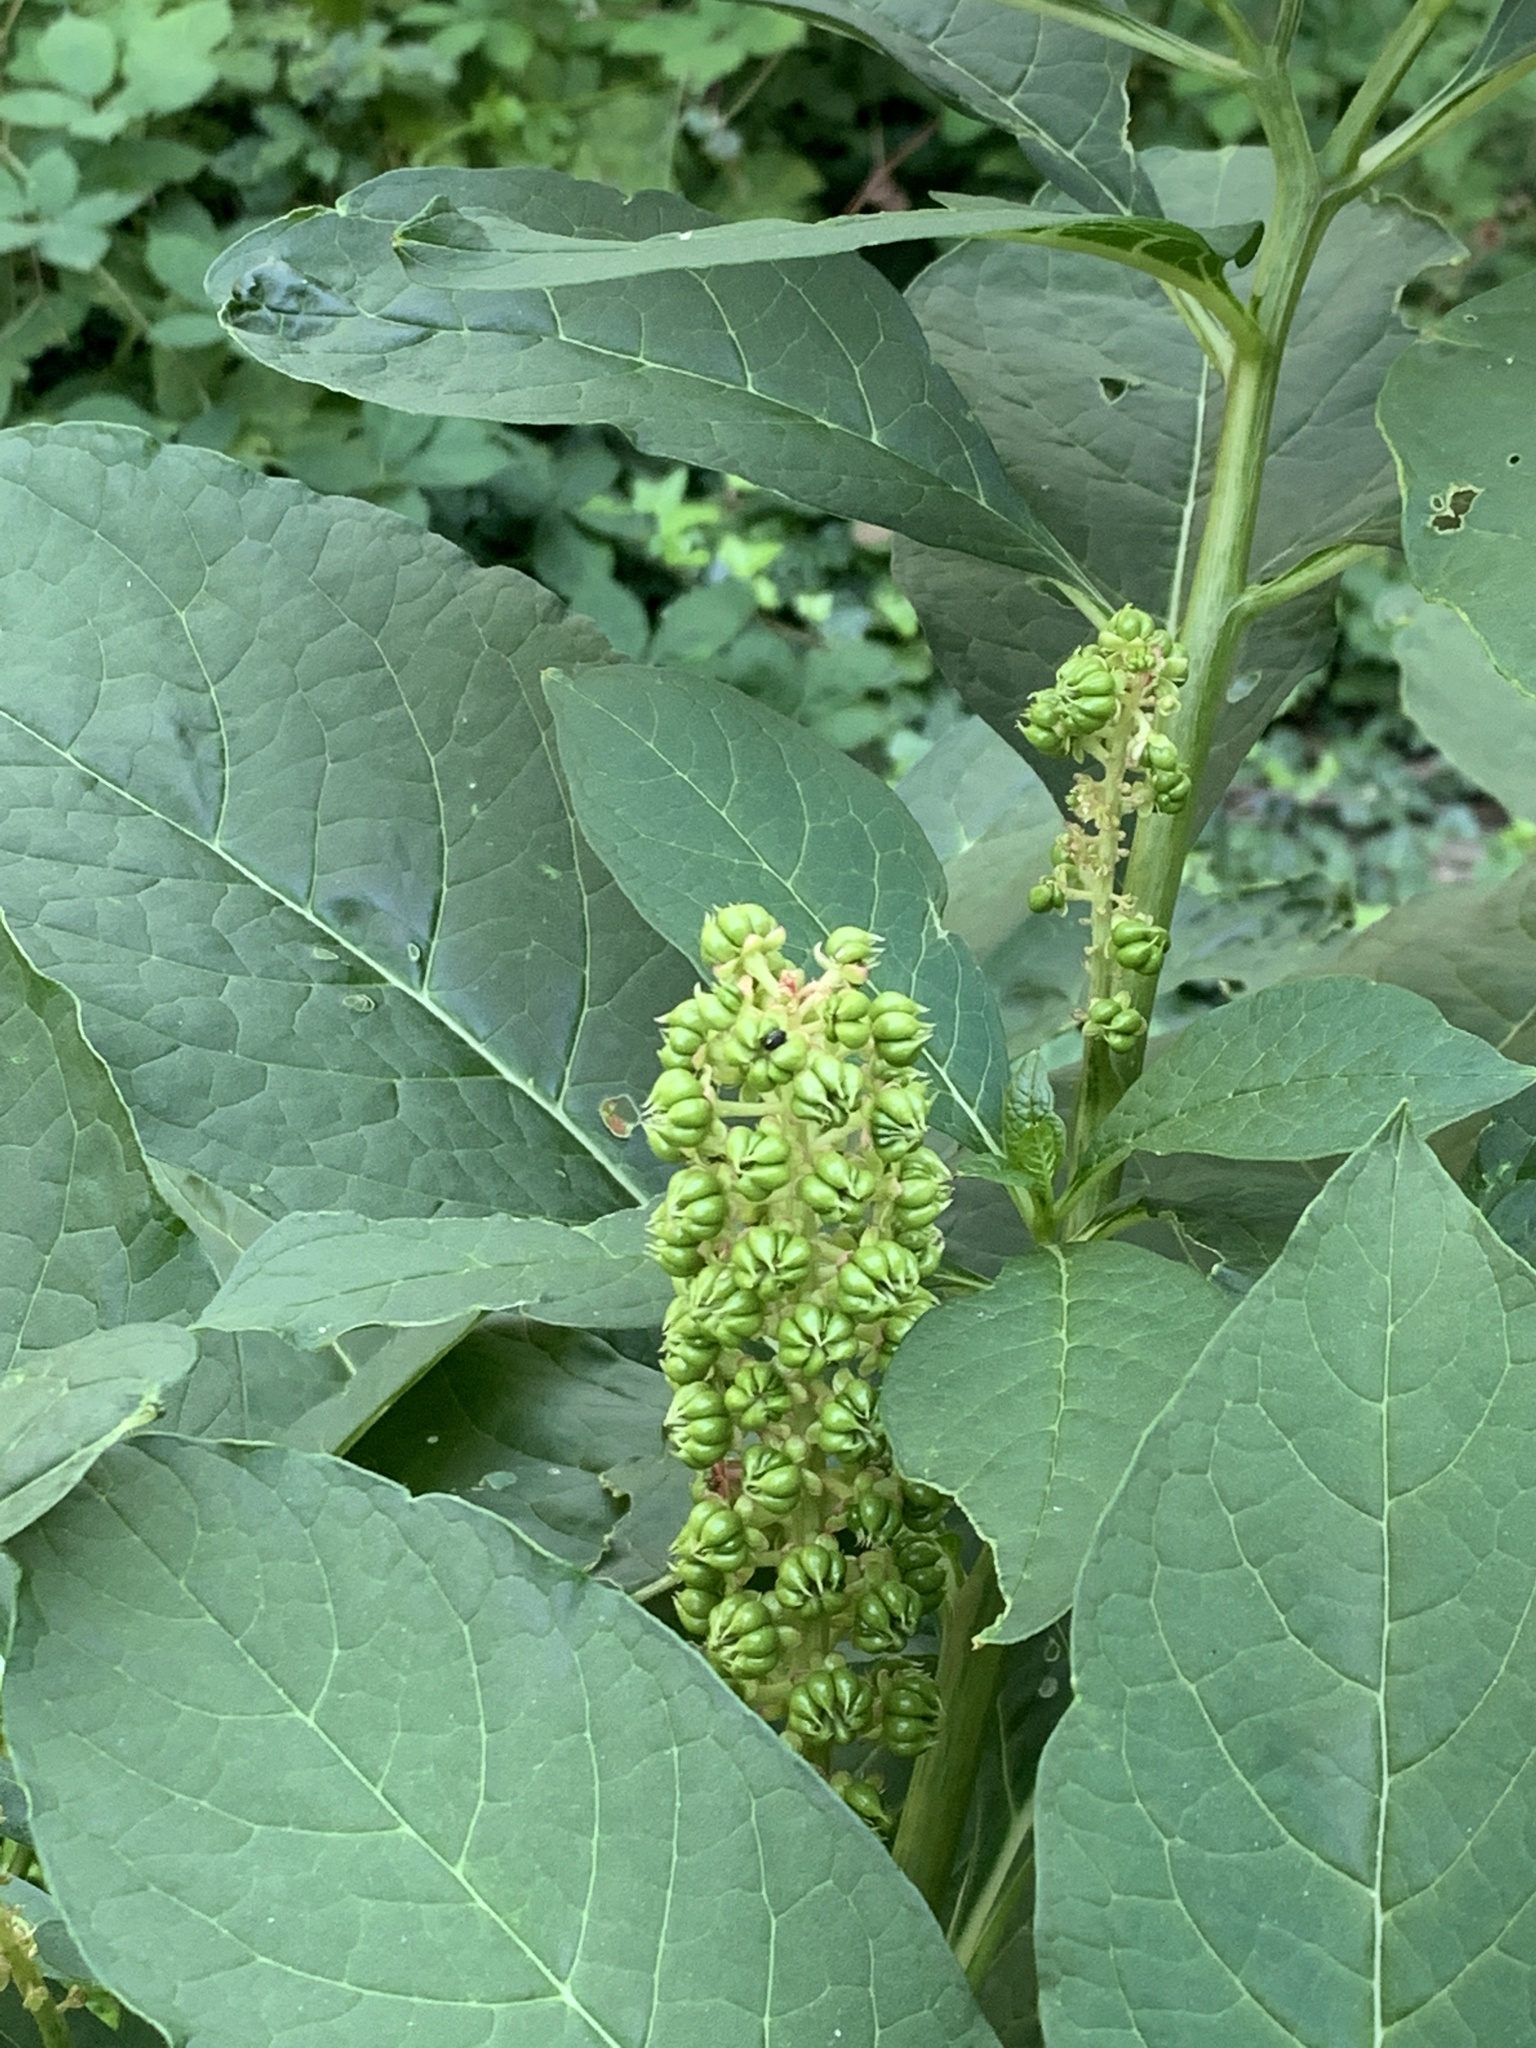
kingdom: Plantae
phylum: Tracheophyta
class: Magnoliopsida
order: Caryophyllales
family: Phytolaccaceae
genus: Phytolacca
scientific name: Phytolacca acinosa
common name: Indian pokeweed
